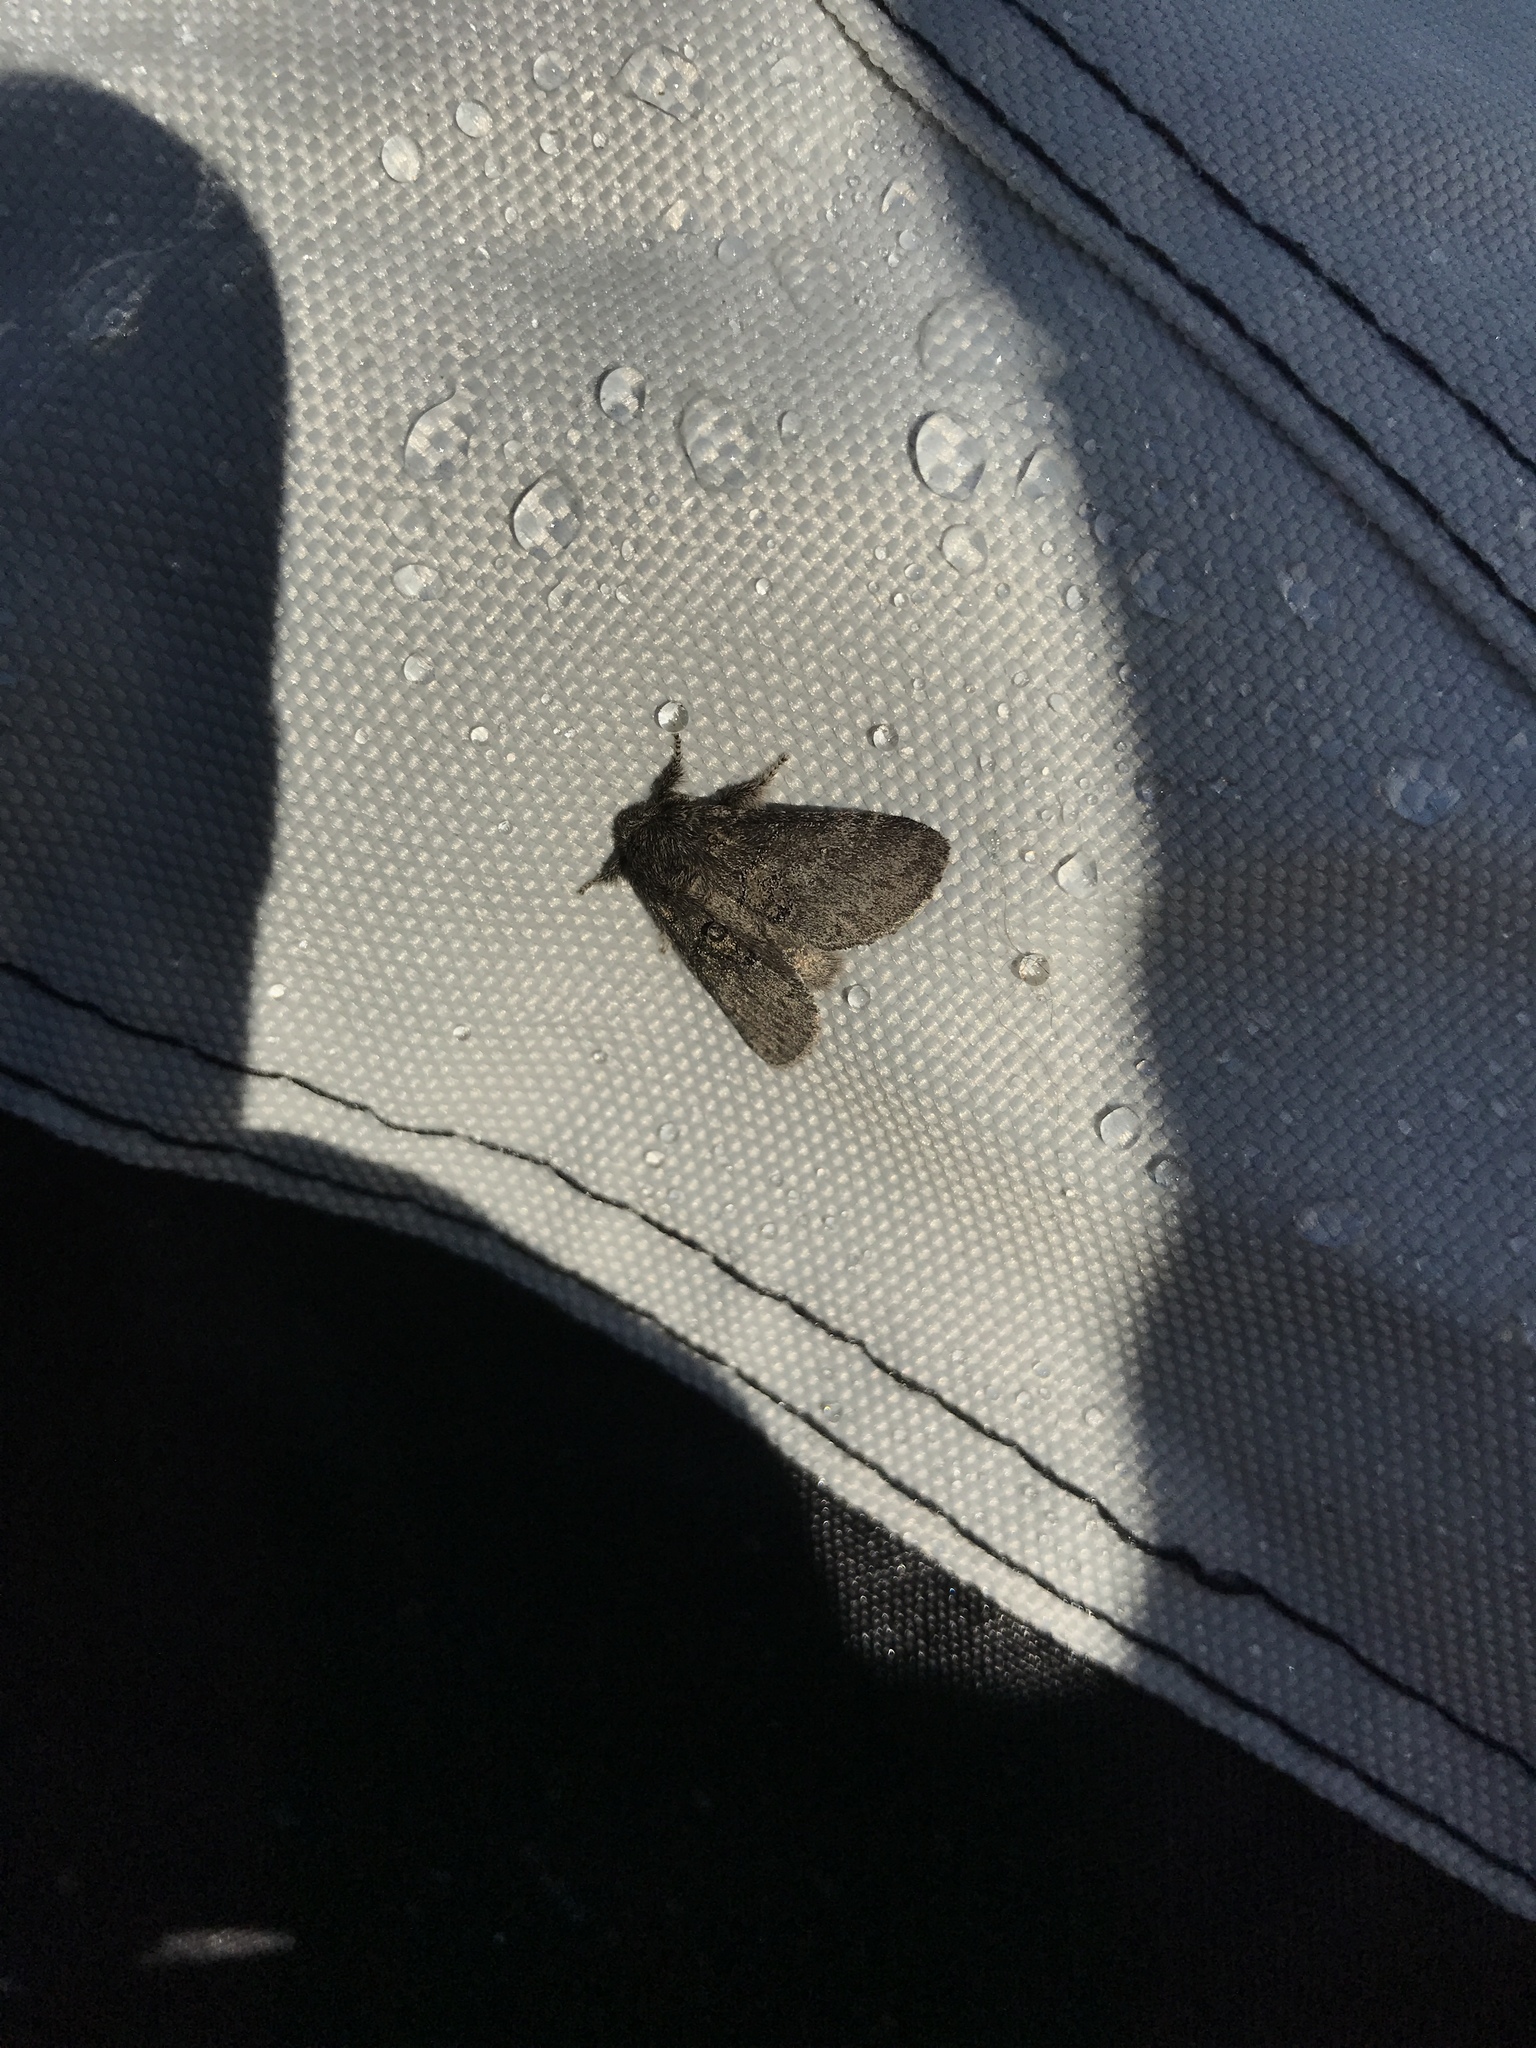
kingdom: Animalia
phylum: Arthropoda
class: Insecta
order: Lepidoptera
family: Notodontidae
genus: Gluphisia
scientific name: Gluphisia septentrionis
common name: Common gluphisia
